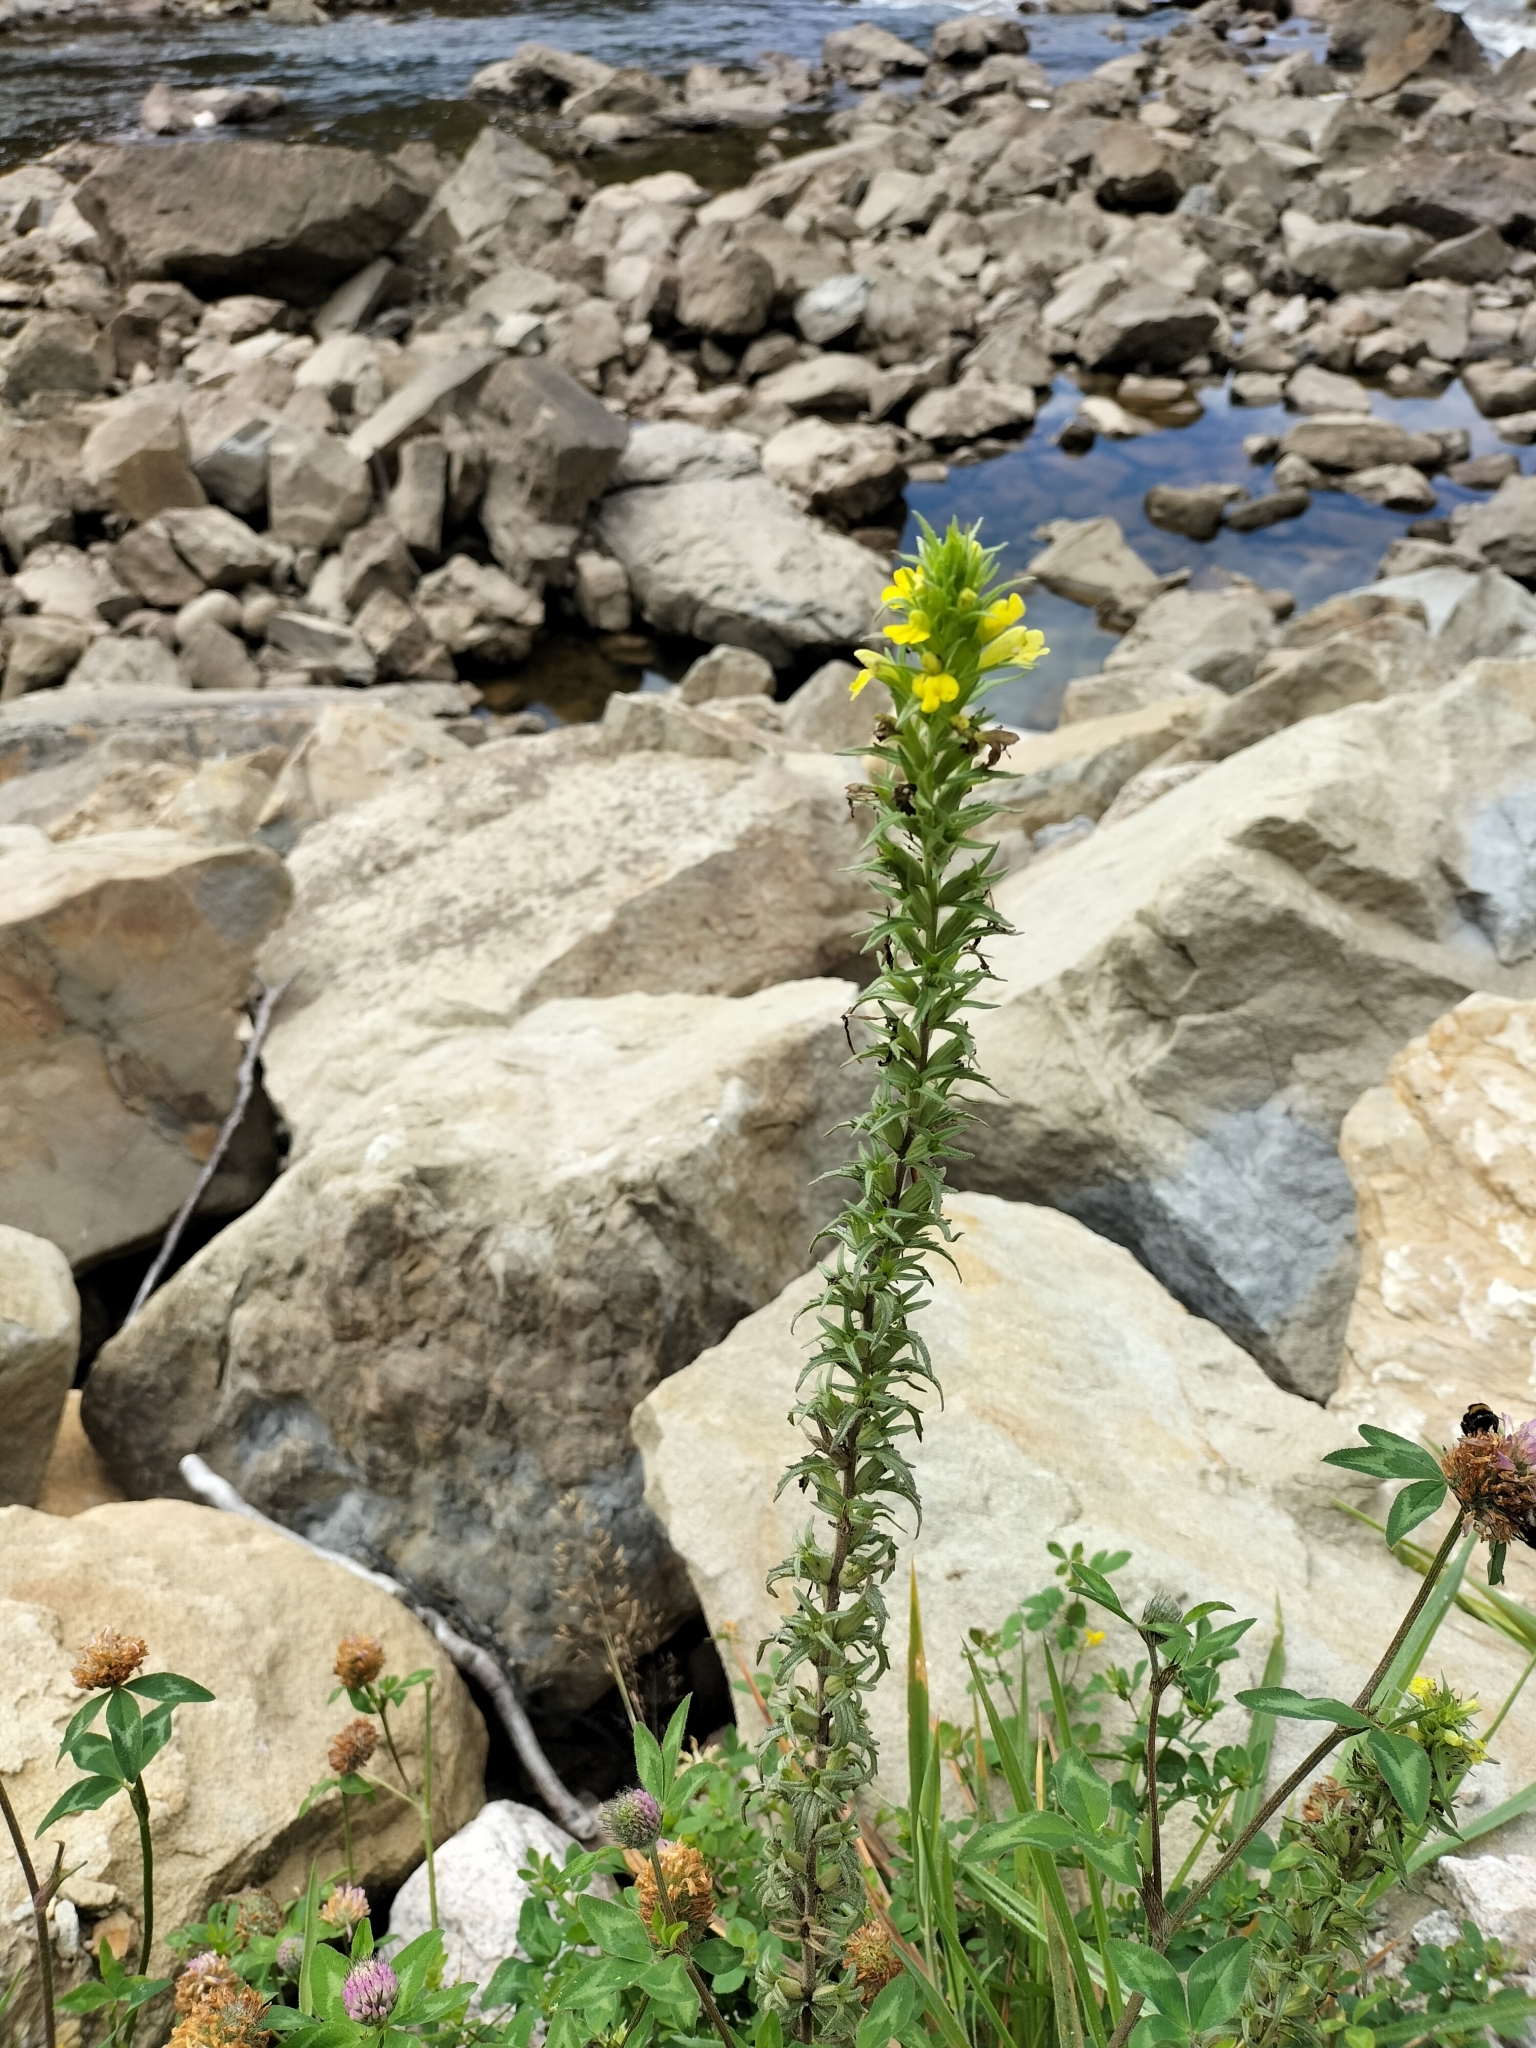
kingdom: Plantae
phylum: Tracheophyta
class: Magnoliopsida
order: Lamiales
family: Orobanchaceae
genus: Bellardia
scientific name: Bellardia viscosa
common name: Sticky parentucellia
